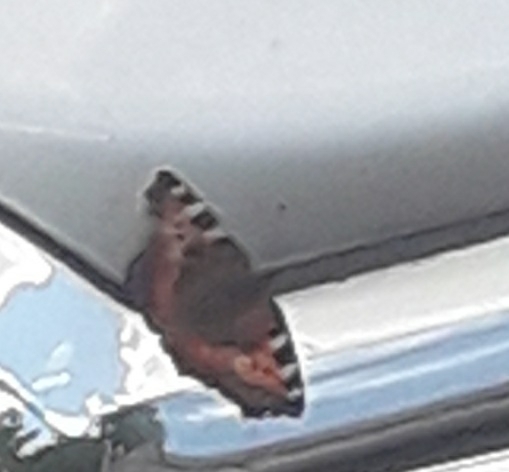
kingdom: Animalia
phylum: Arthropoda
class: Insecta
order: Lepidoptera
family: Nymphalidae
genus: Aglais
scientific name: Aglais urticae
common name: Small tortoiseshell
